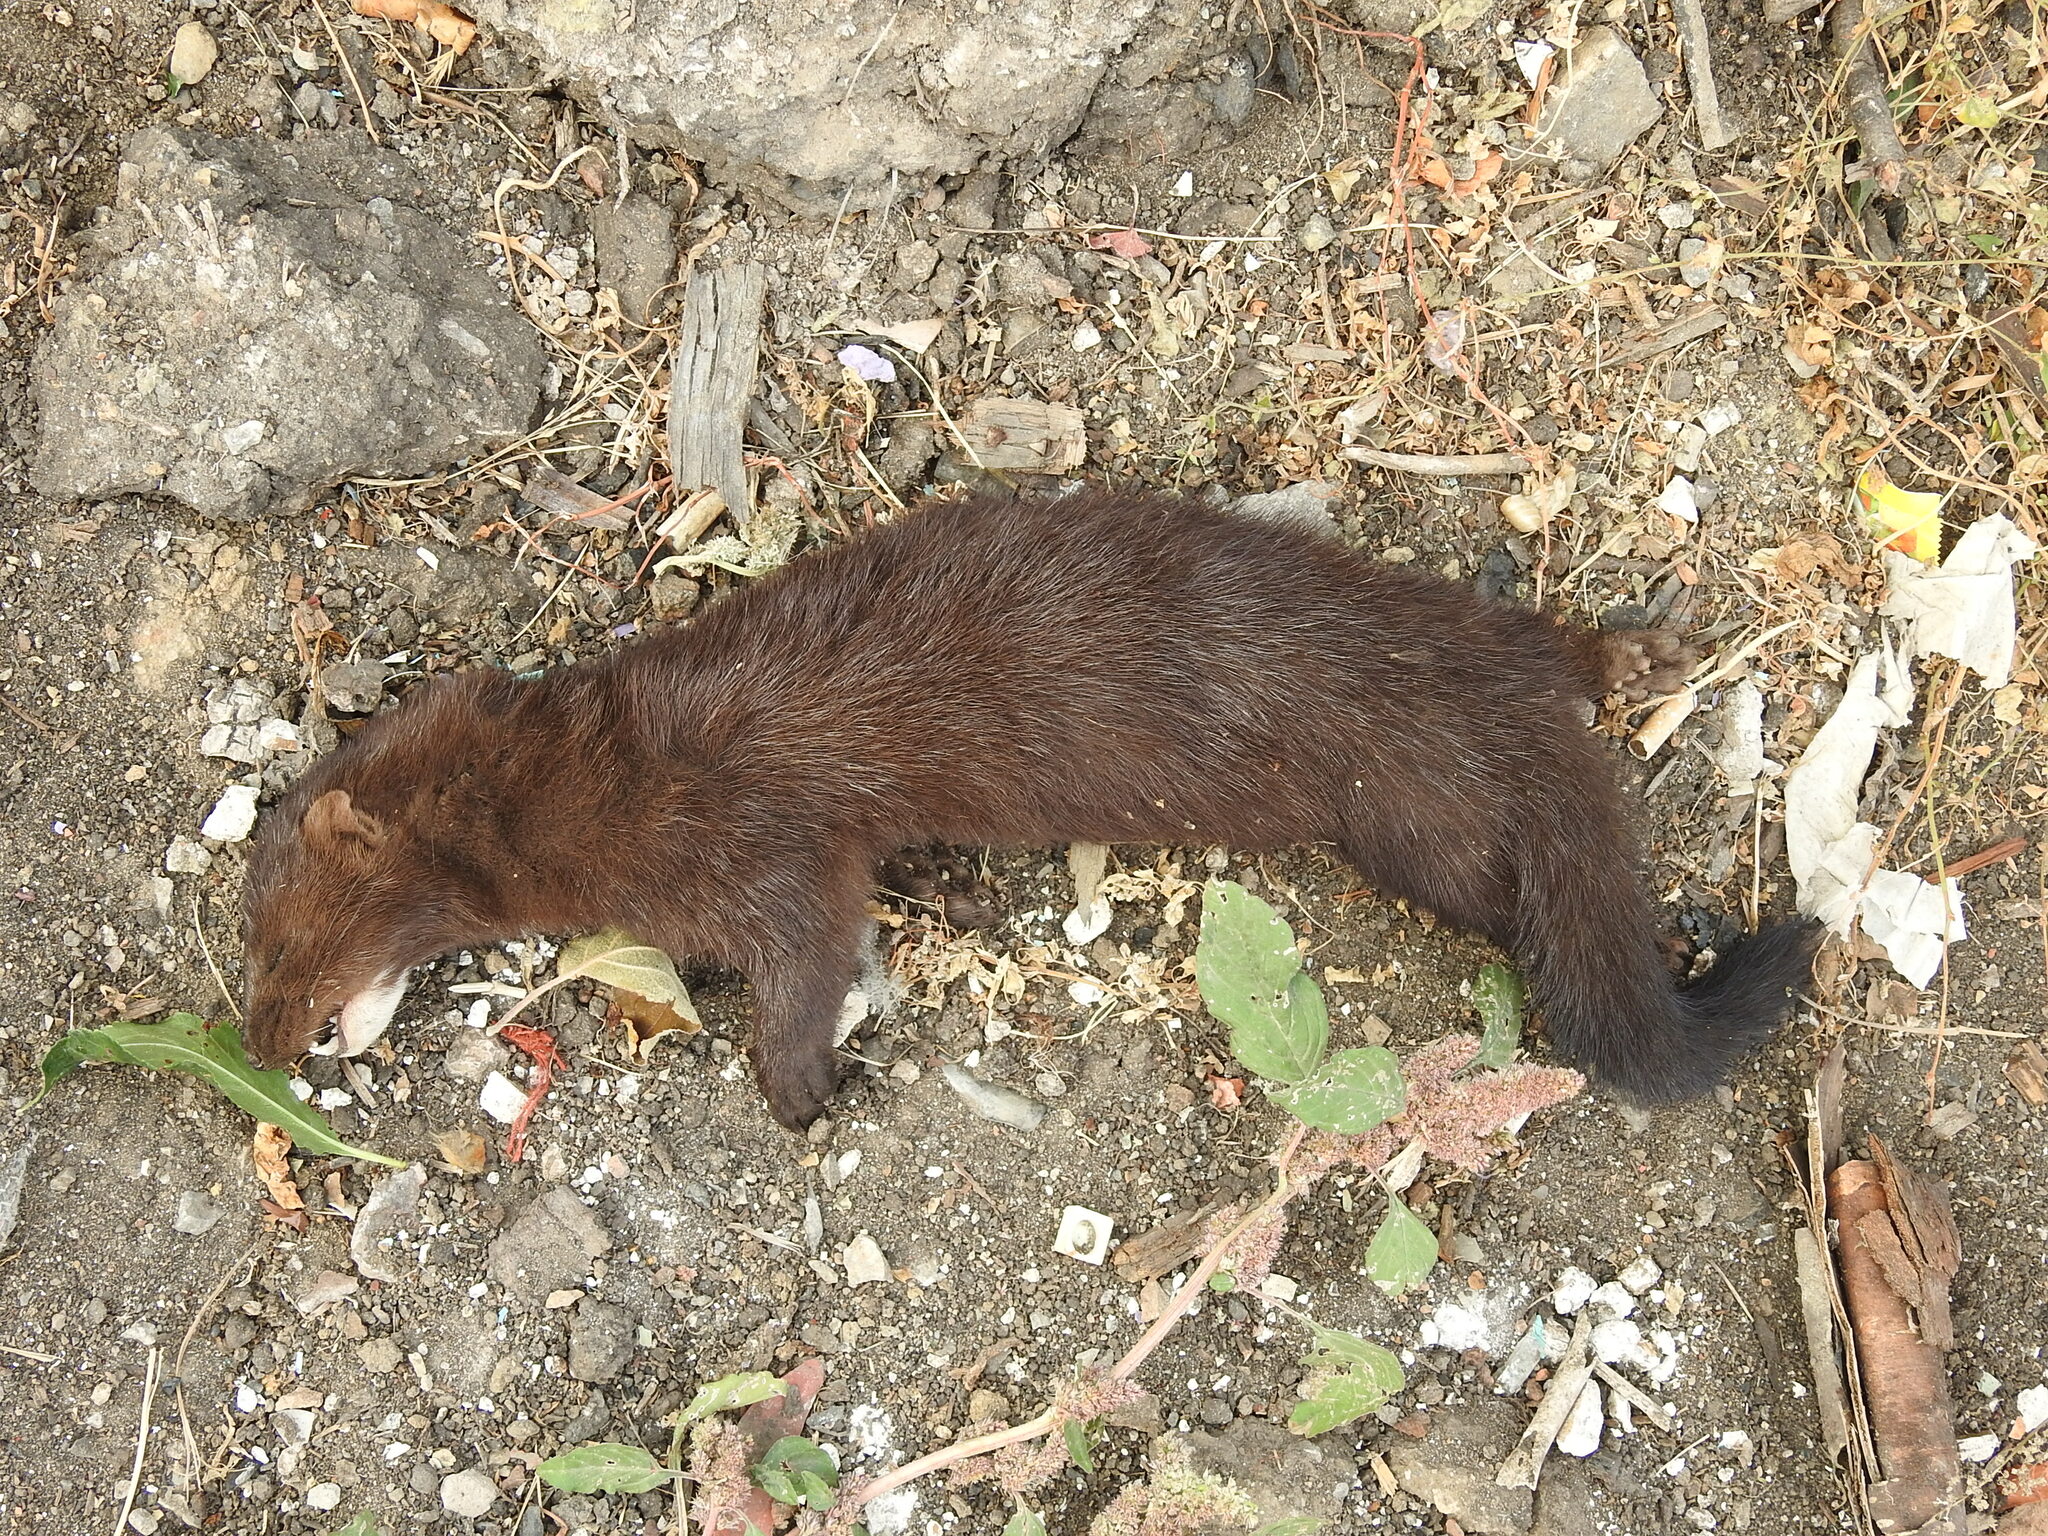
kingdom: Animalia
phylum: Chordata
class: Mammalia
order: Carnivora
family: Mustelidae
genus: Mustela
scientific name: Mustela
